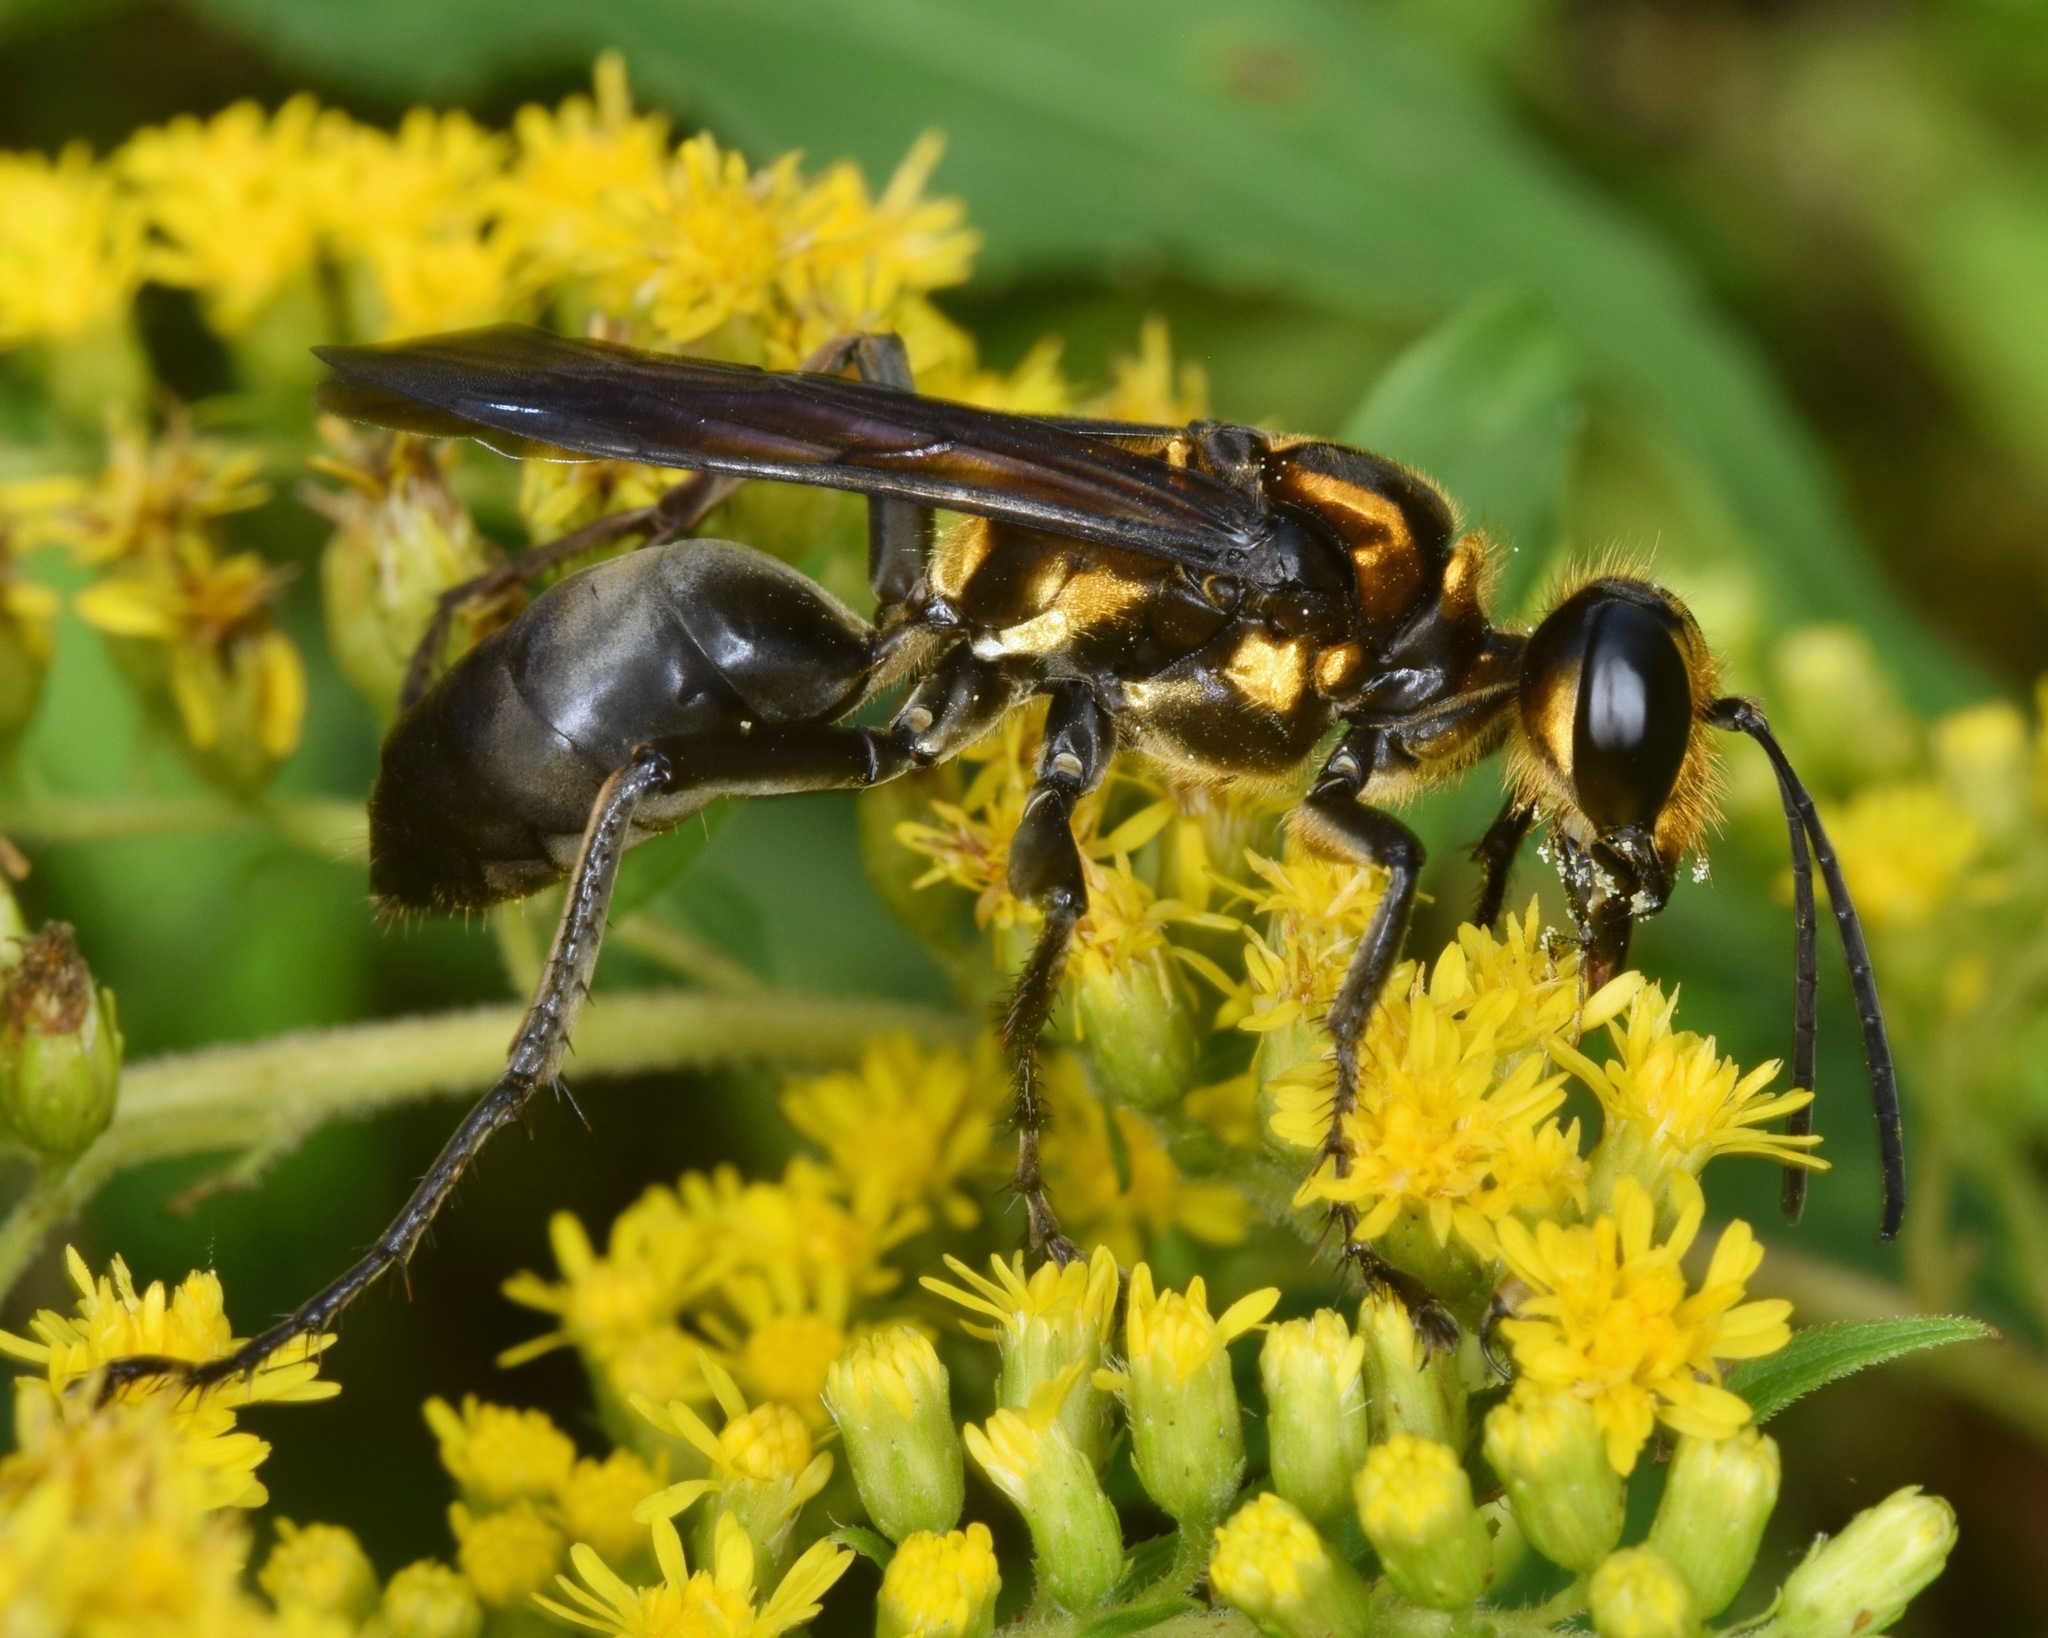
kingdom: Animalia
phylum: Arthropoda
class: Insecta
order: Hymenoptera
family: Sphecidae
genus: Sphex
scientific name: Sphex habenus
